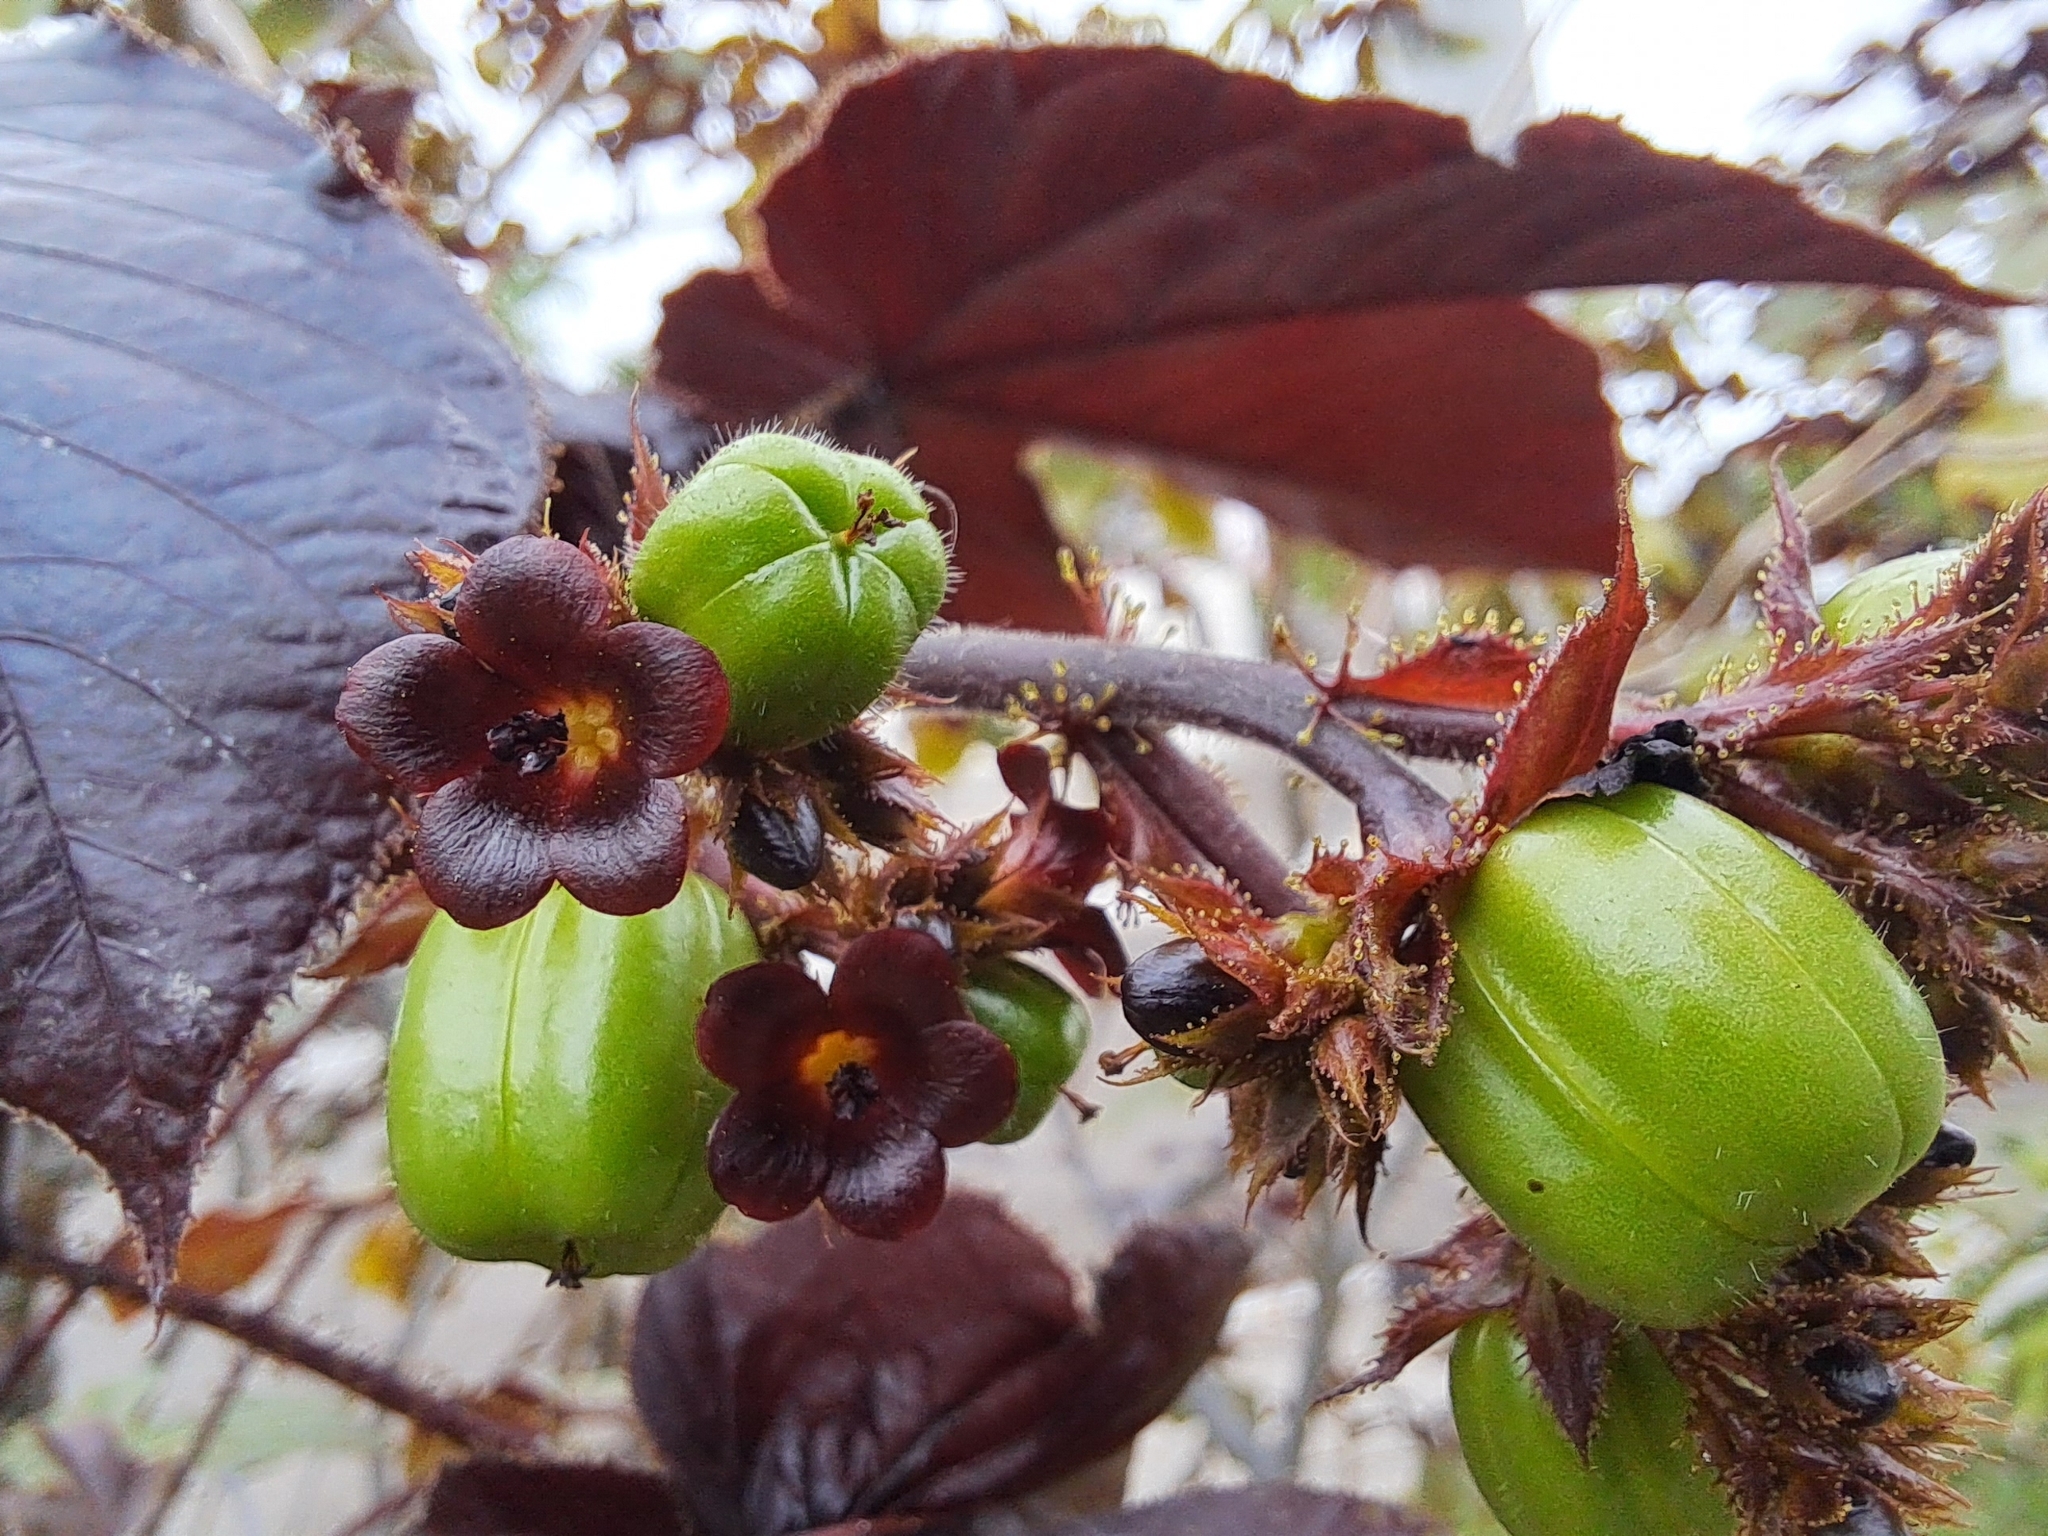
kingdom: Plantae
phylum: Tracheophyta
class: Magnoliopsida
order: Malpighiales
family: Euphorbiaceae
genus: Jatropha
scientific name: Jatropha gossypiifolia
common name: Bellyache bush
